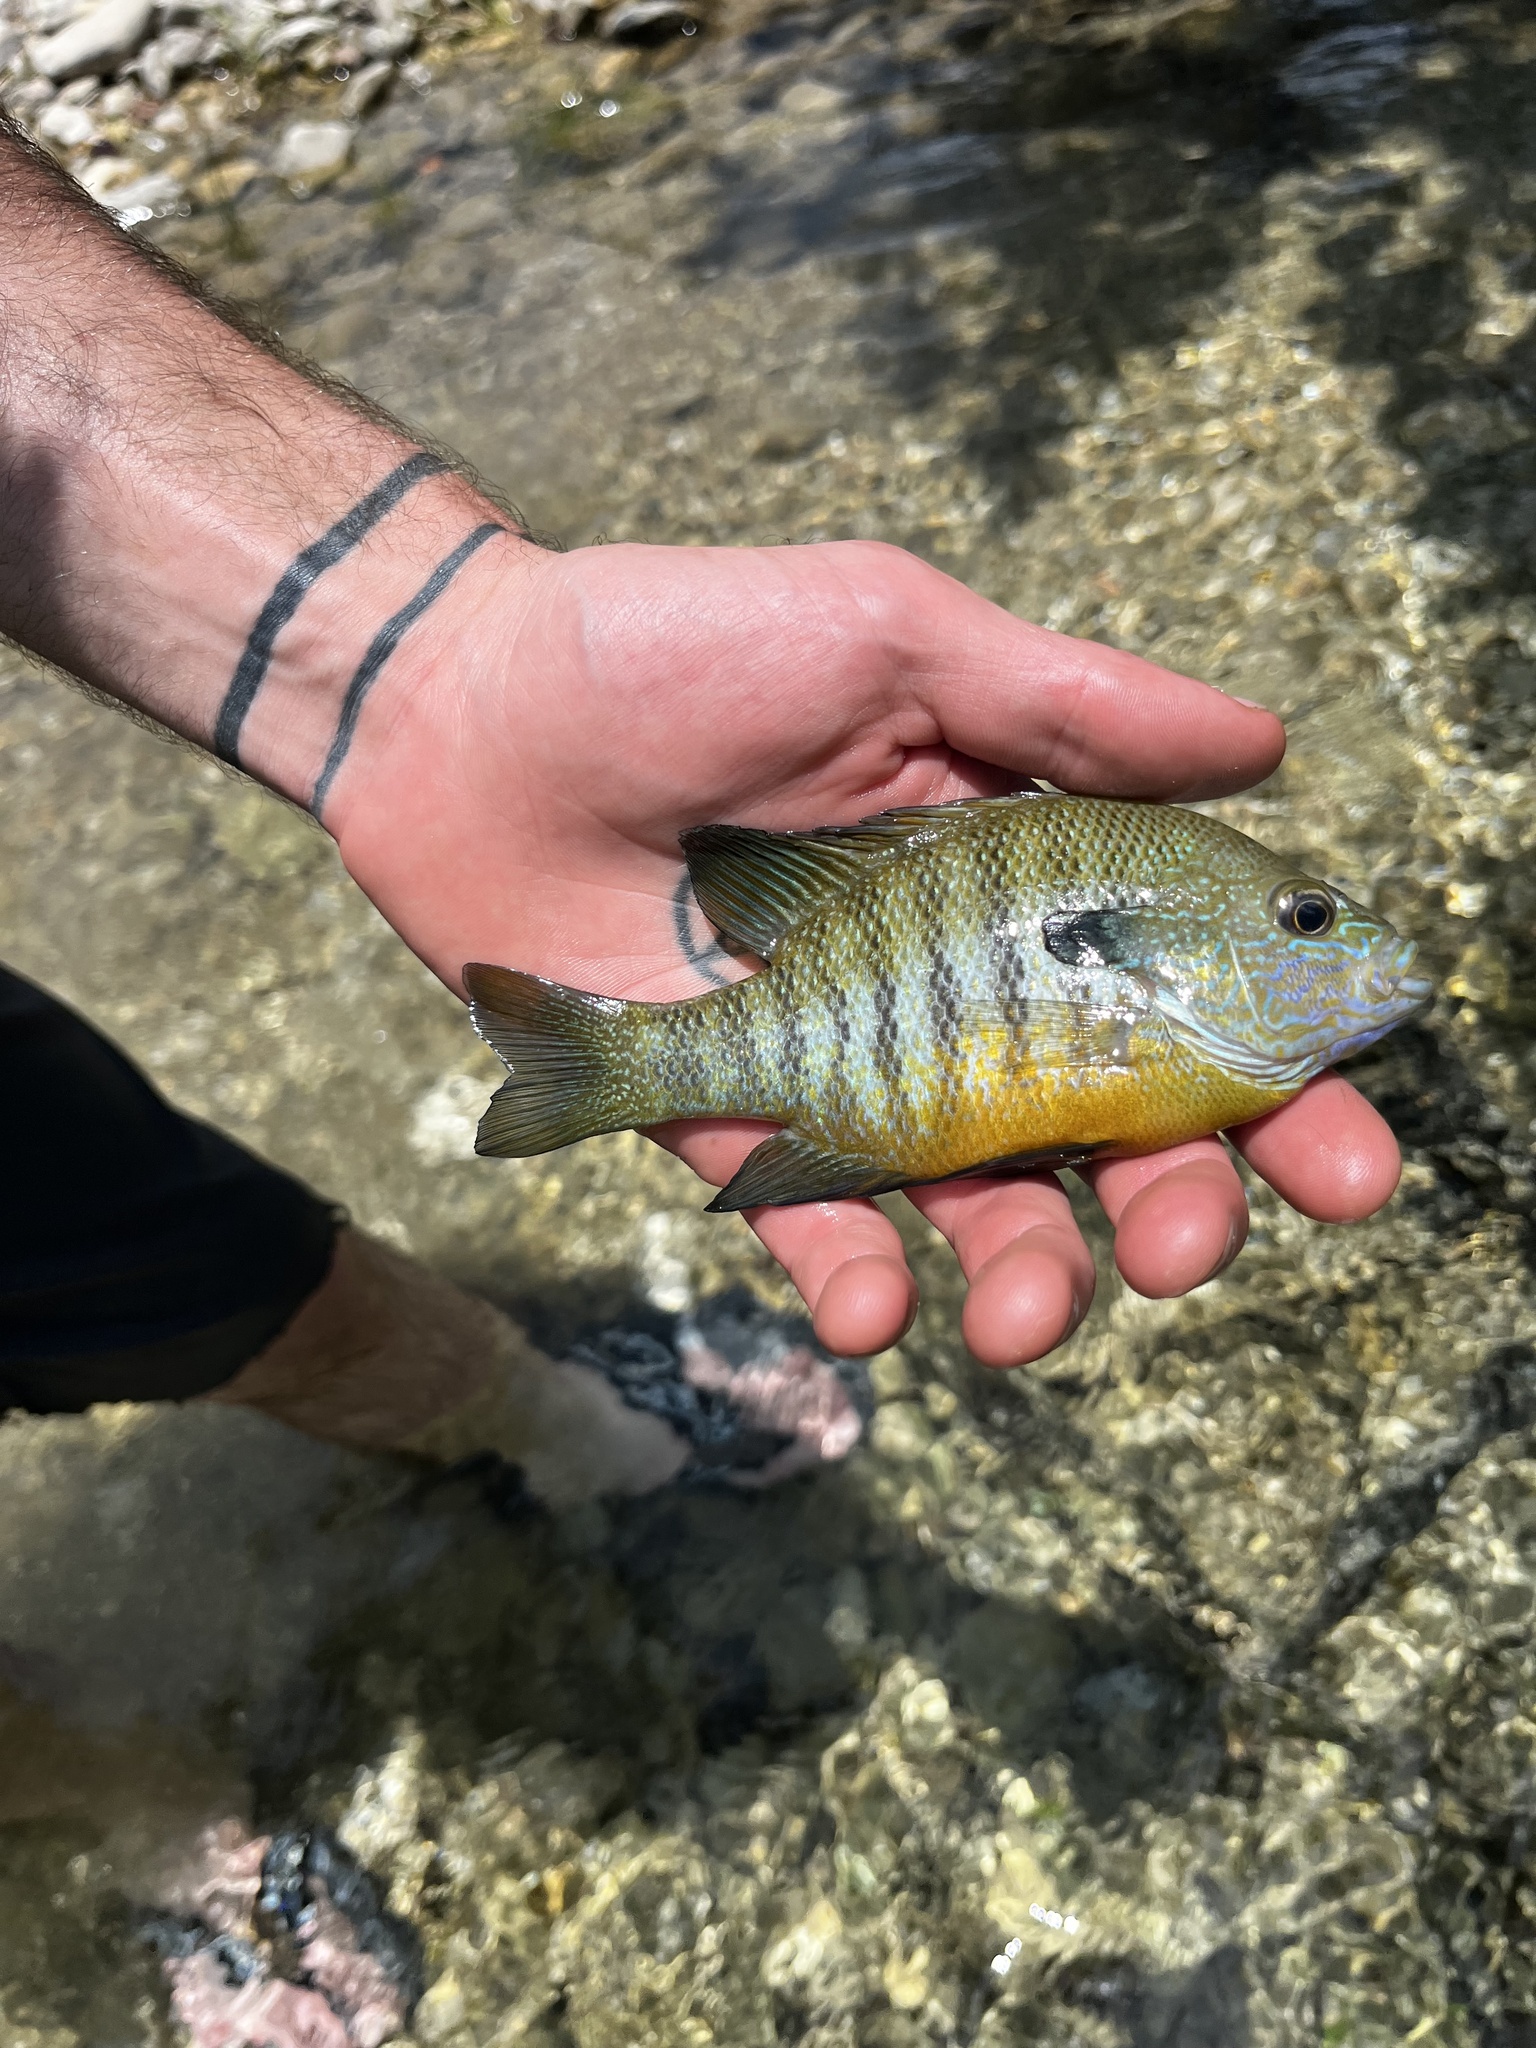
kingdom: Animalia
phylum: Chordata
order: Perciformes
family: Centrarchidae
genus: Lepomis
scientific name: Lepomis aquilensis
